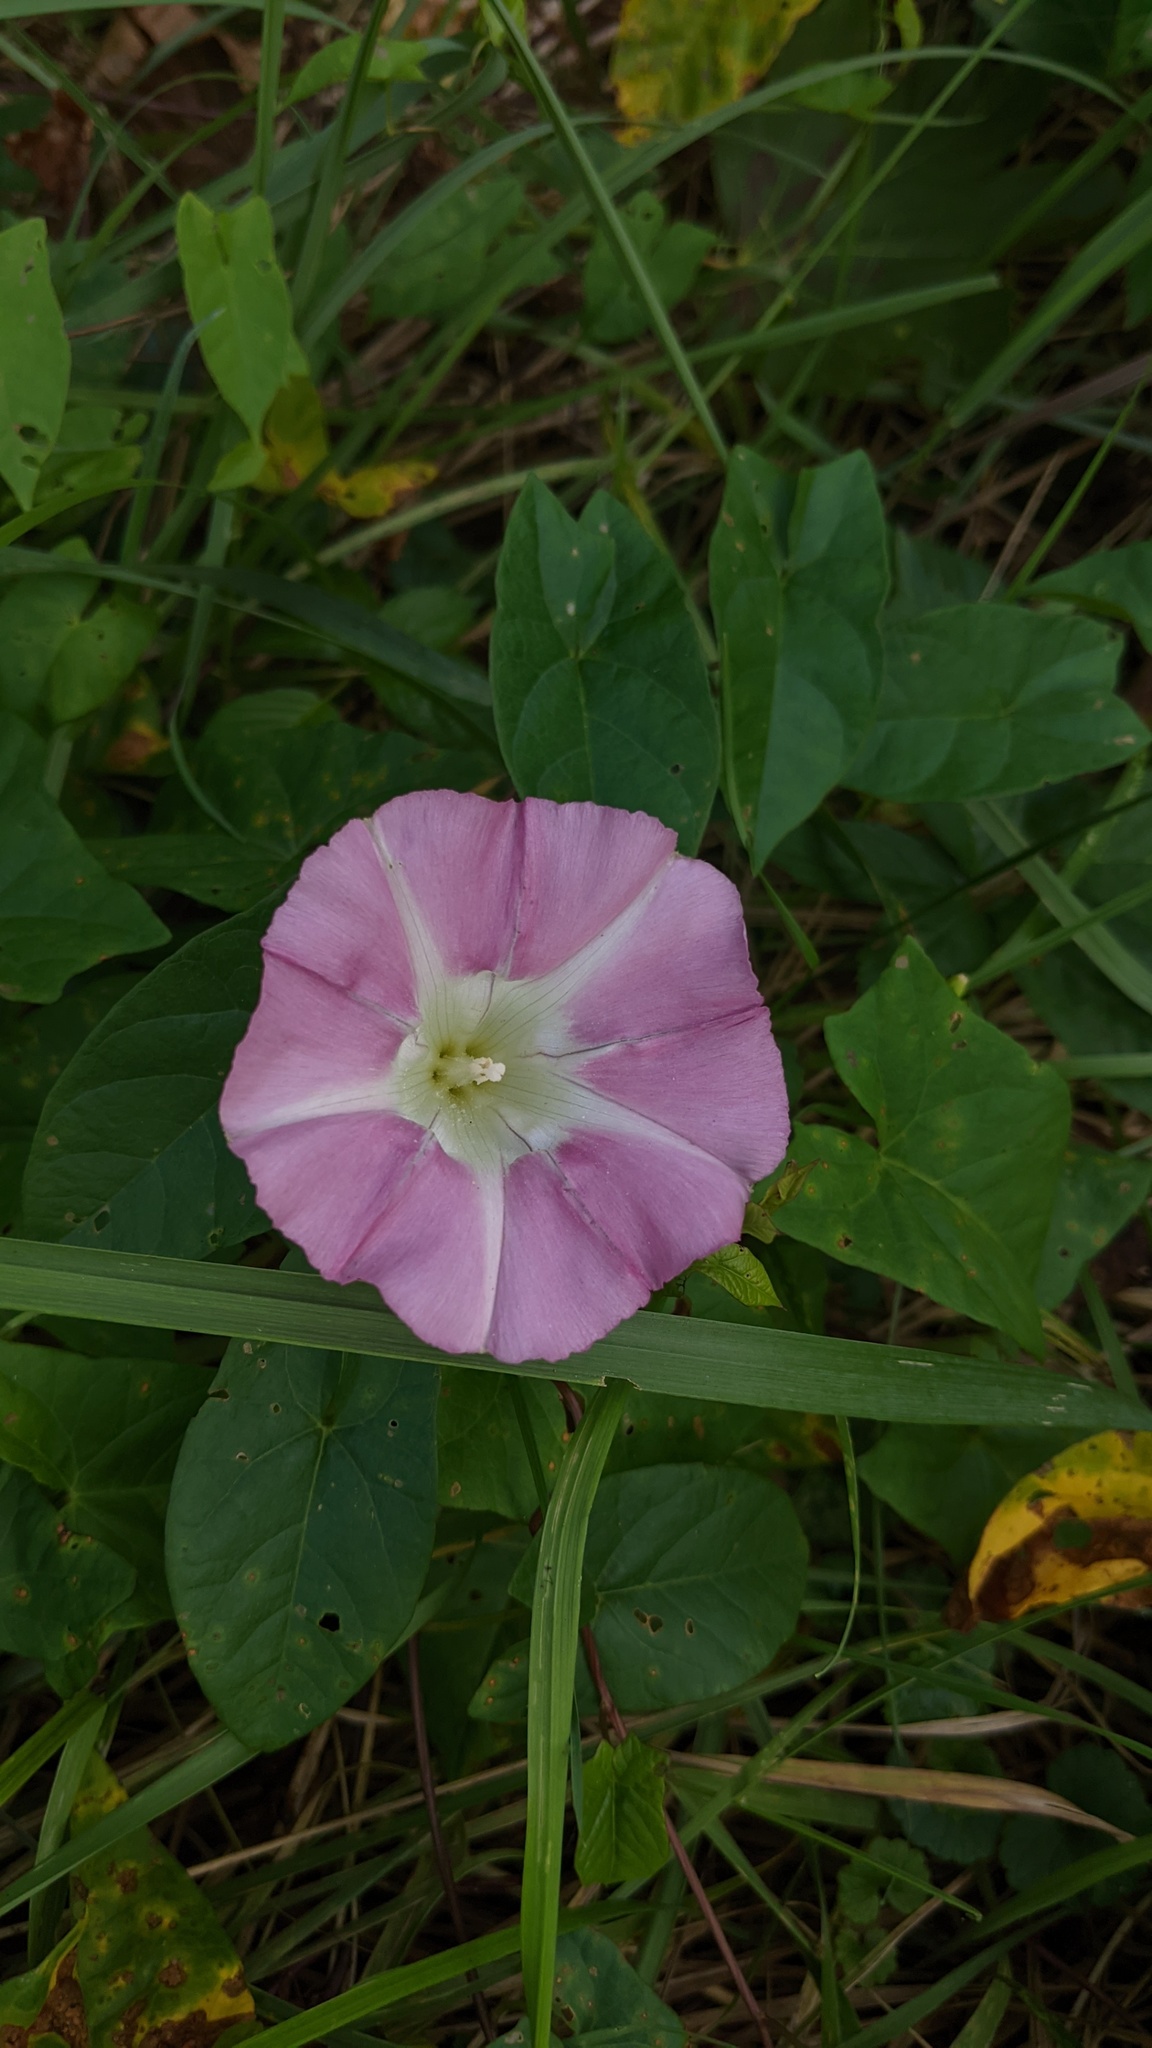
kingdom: Plantae
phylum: Tracheophyta
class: Magnoliopsida
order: Solanales
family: Convolvulaceae
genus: Calystegia
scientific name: Calystegia sepium
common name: Hedge bindweed
